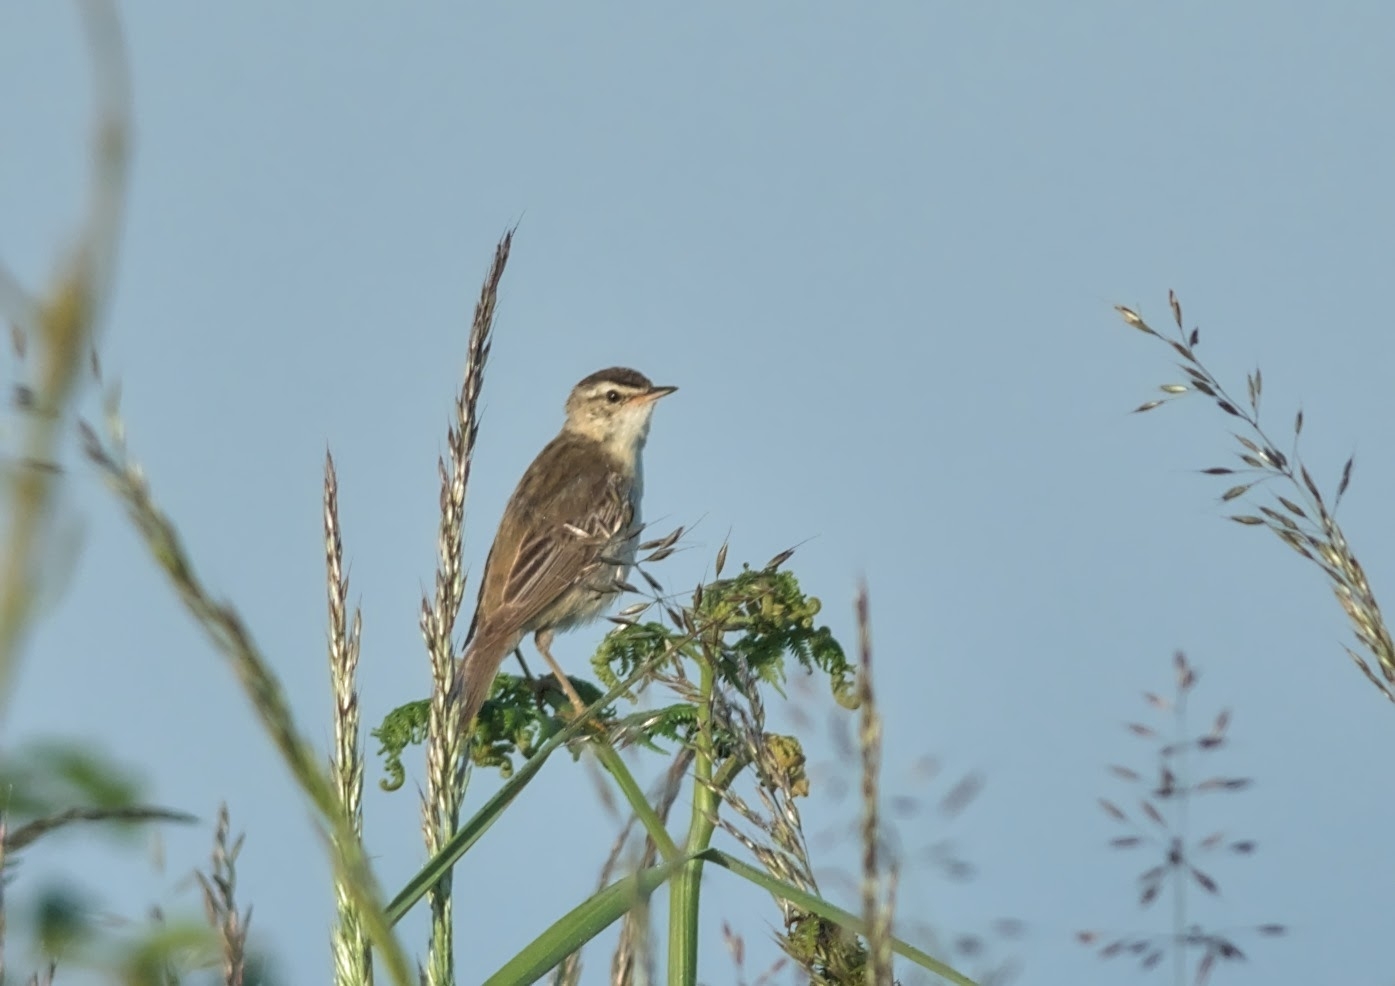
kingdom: Animalia
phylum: Chordata
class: Aves
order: Passeriformes
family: Acrocephalidae
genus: Acrocephalus
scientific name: Acrocephalus schoenobaenus
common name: Sedge warbler
